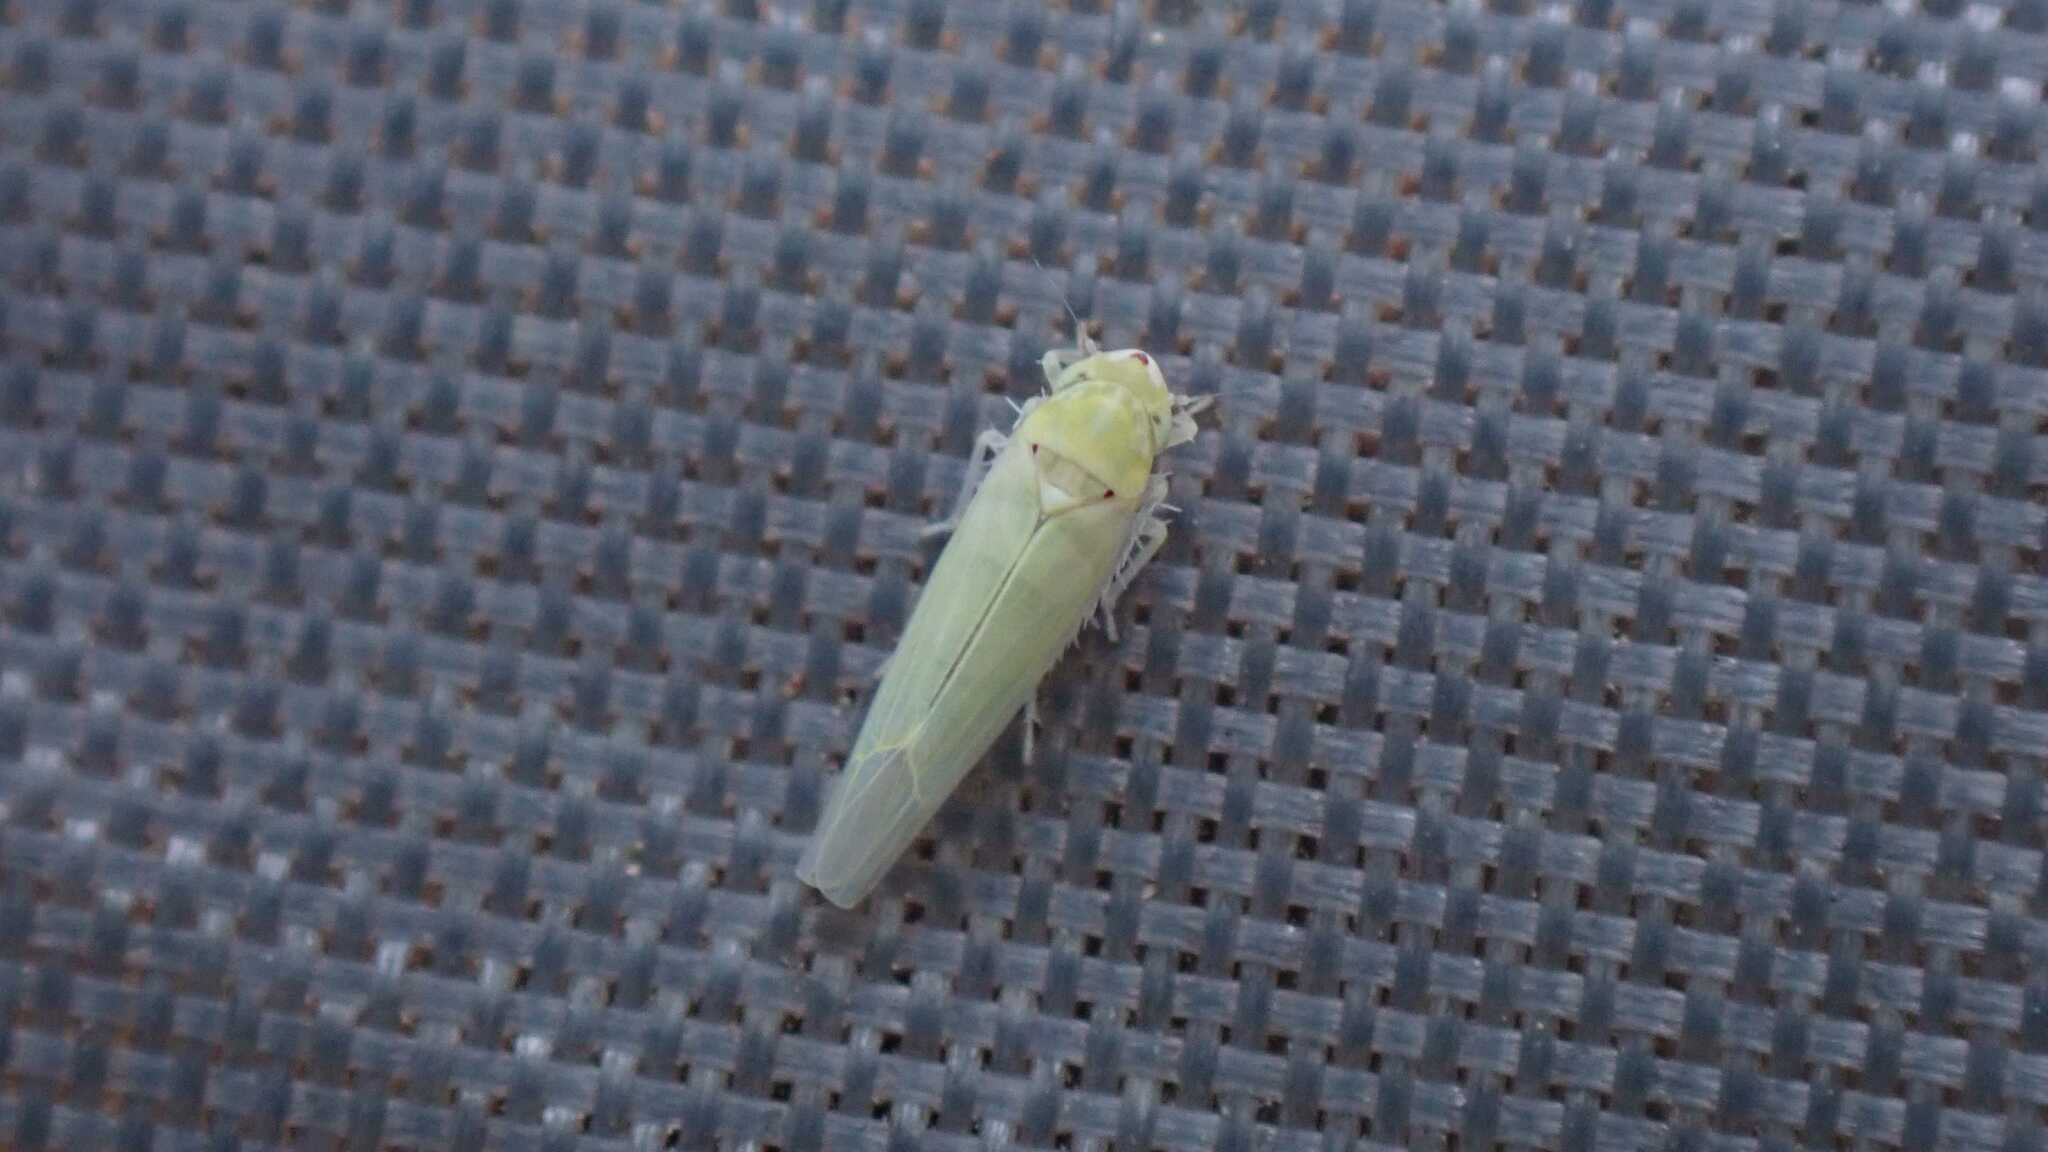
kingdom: Animalia
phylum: Arthropoda
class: Insecta
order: Hemiptera
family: Cicadellidae
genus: Zygina
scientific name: Zygina nivea
